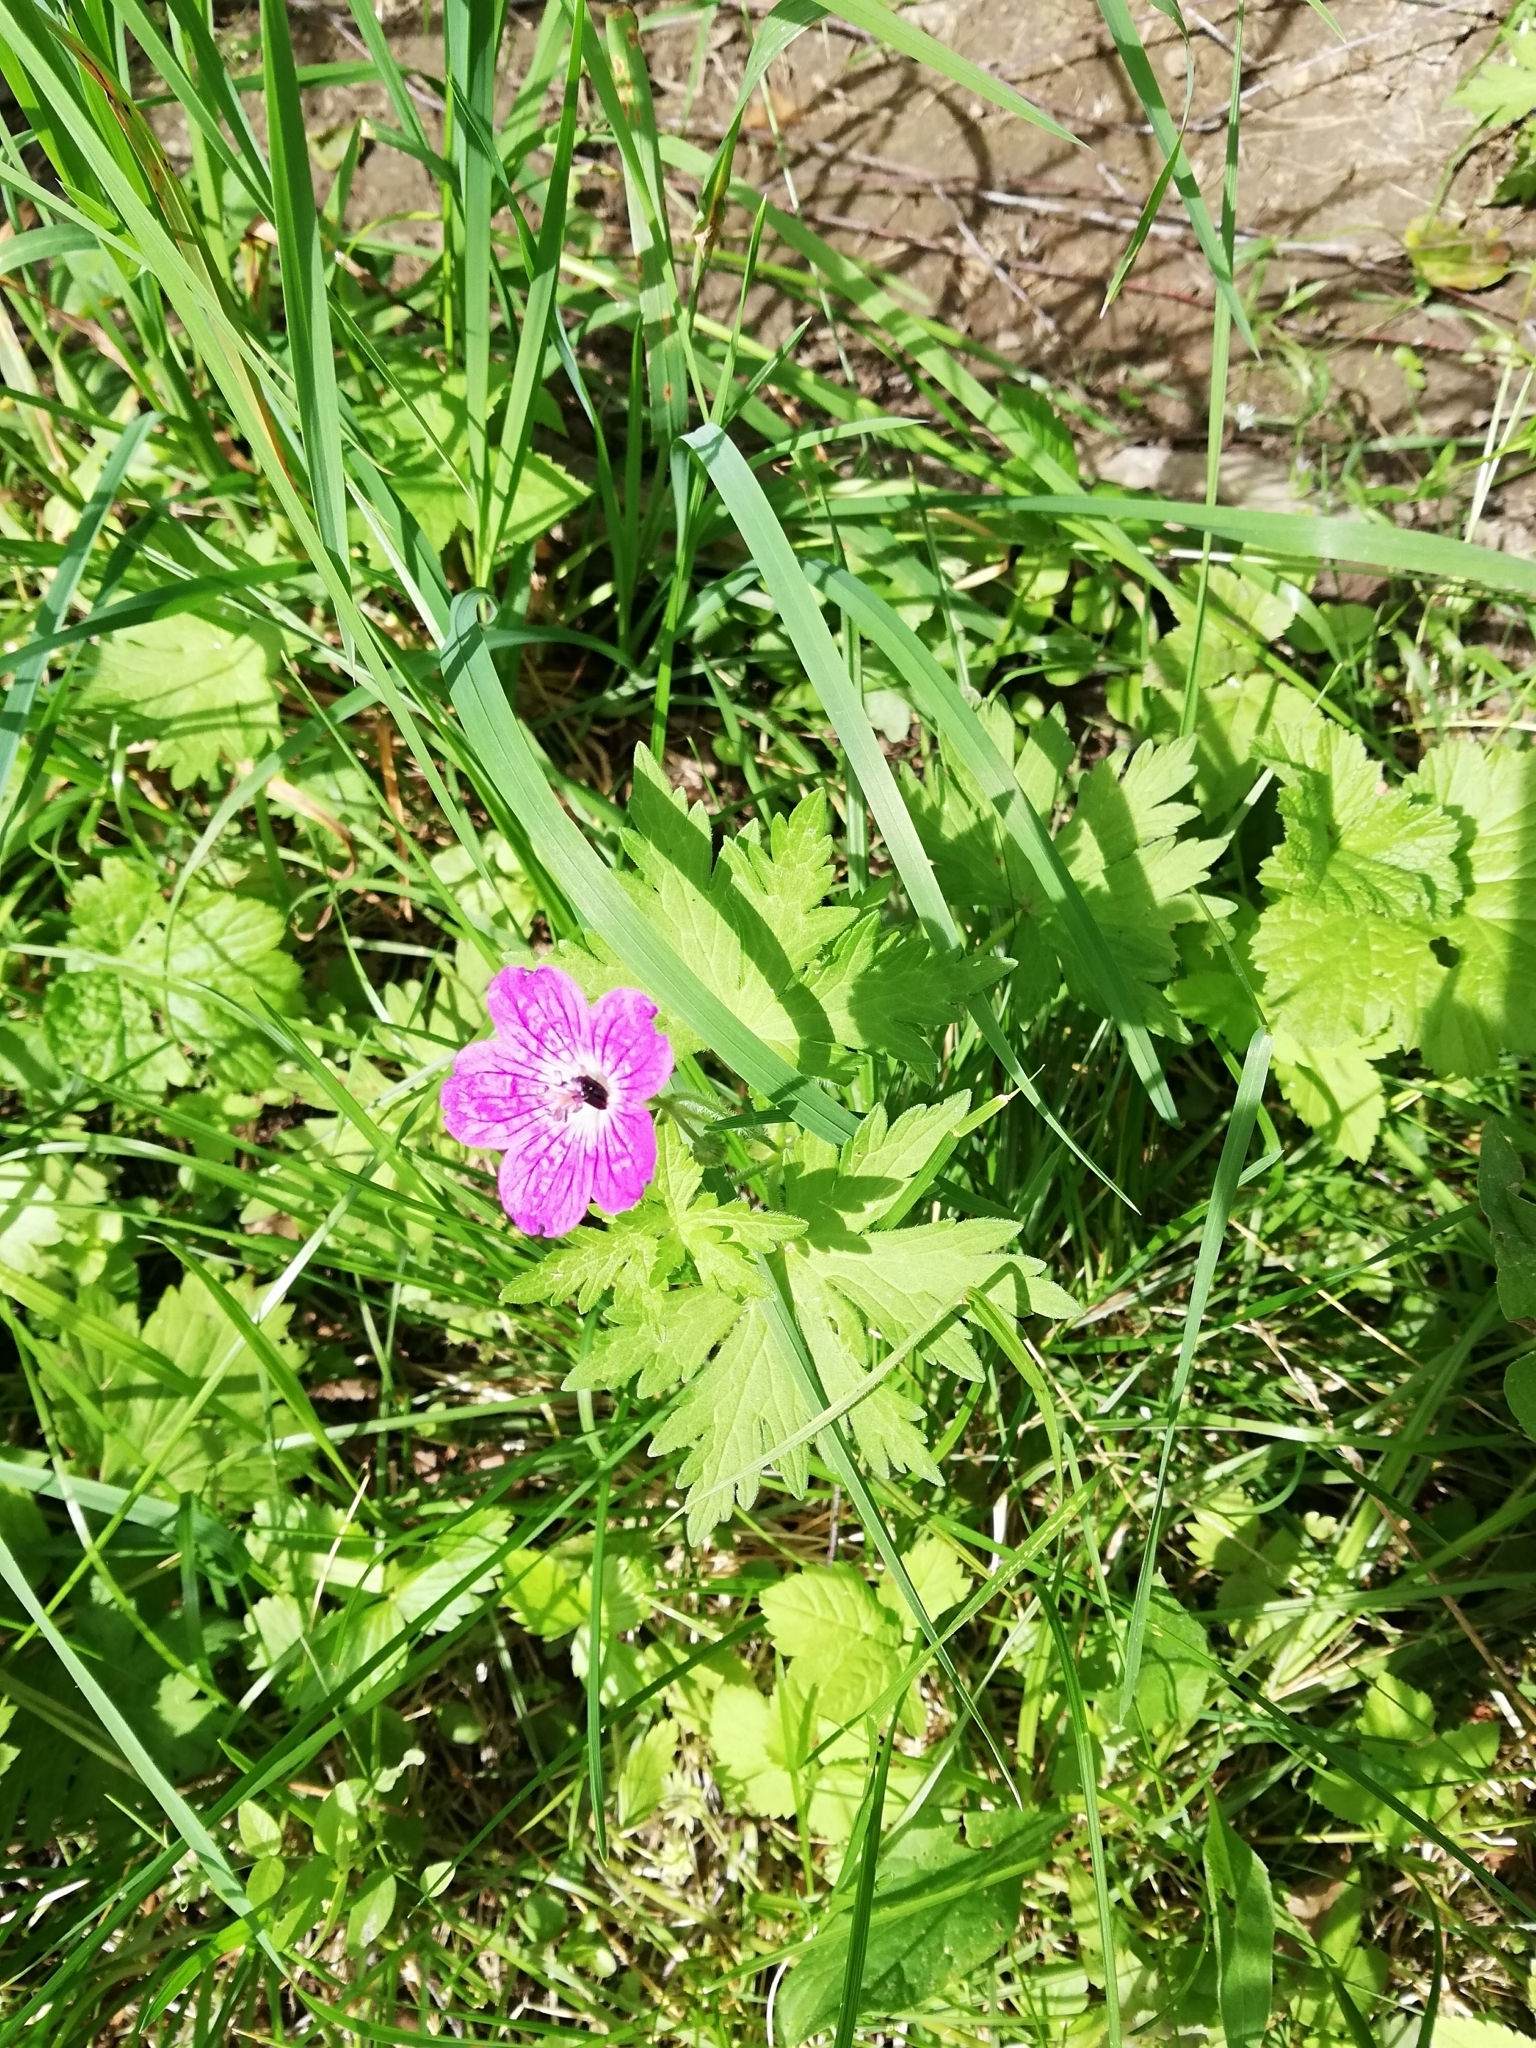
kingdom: Plantae
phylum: Tracheophyta
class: Magnoliopsida
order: Geraniales
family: Geraniaceae
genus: Geranium
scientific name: Geranium palustre
